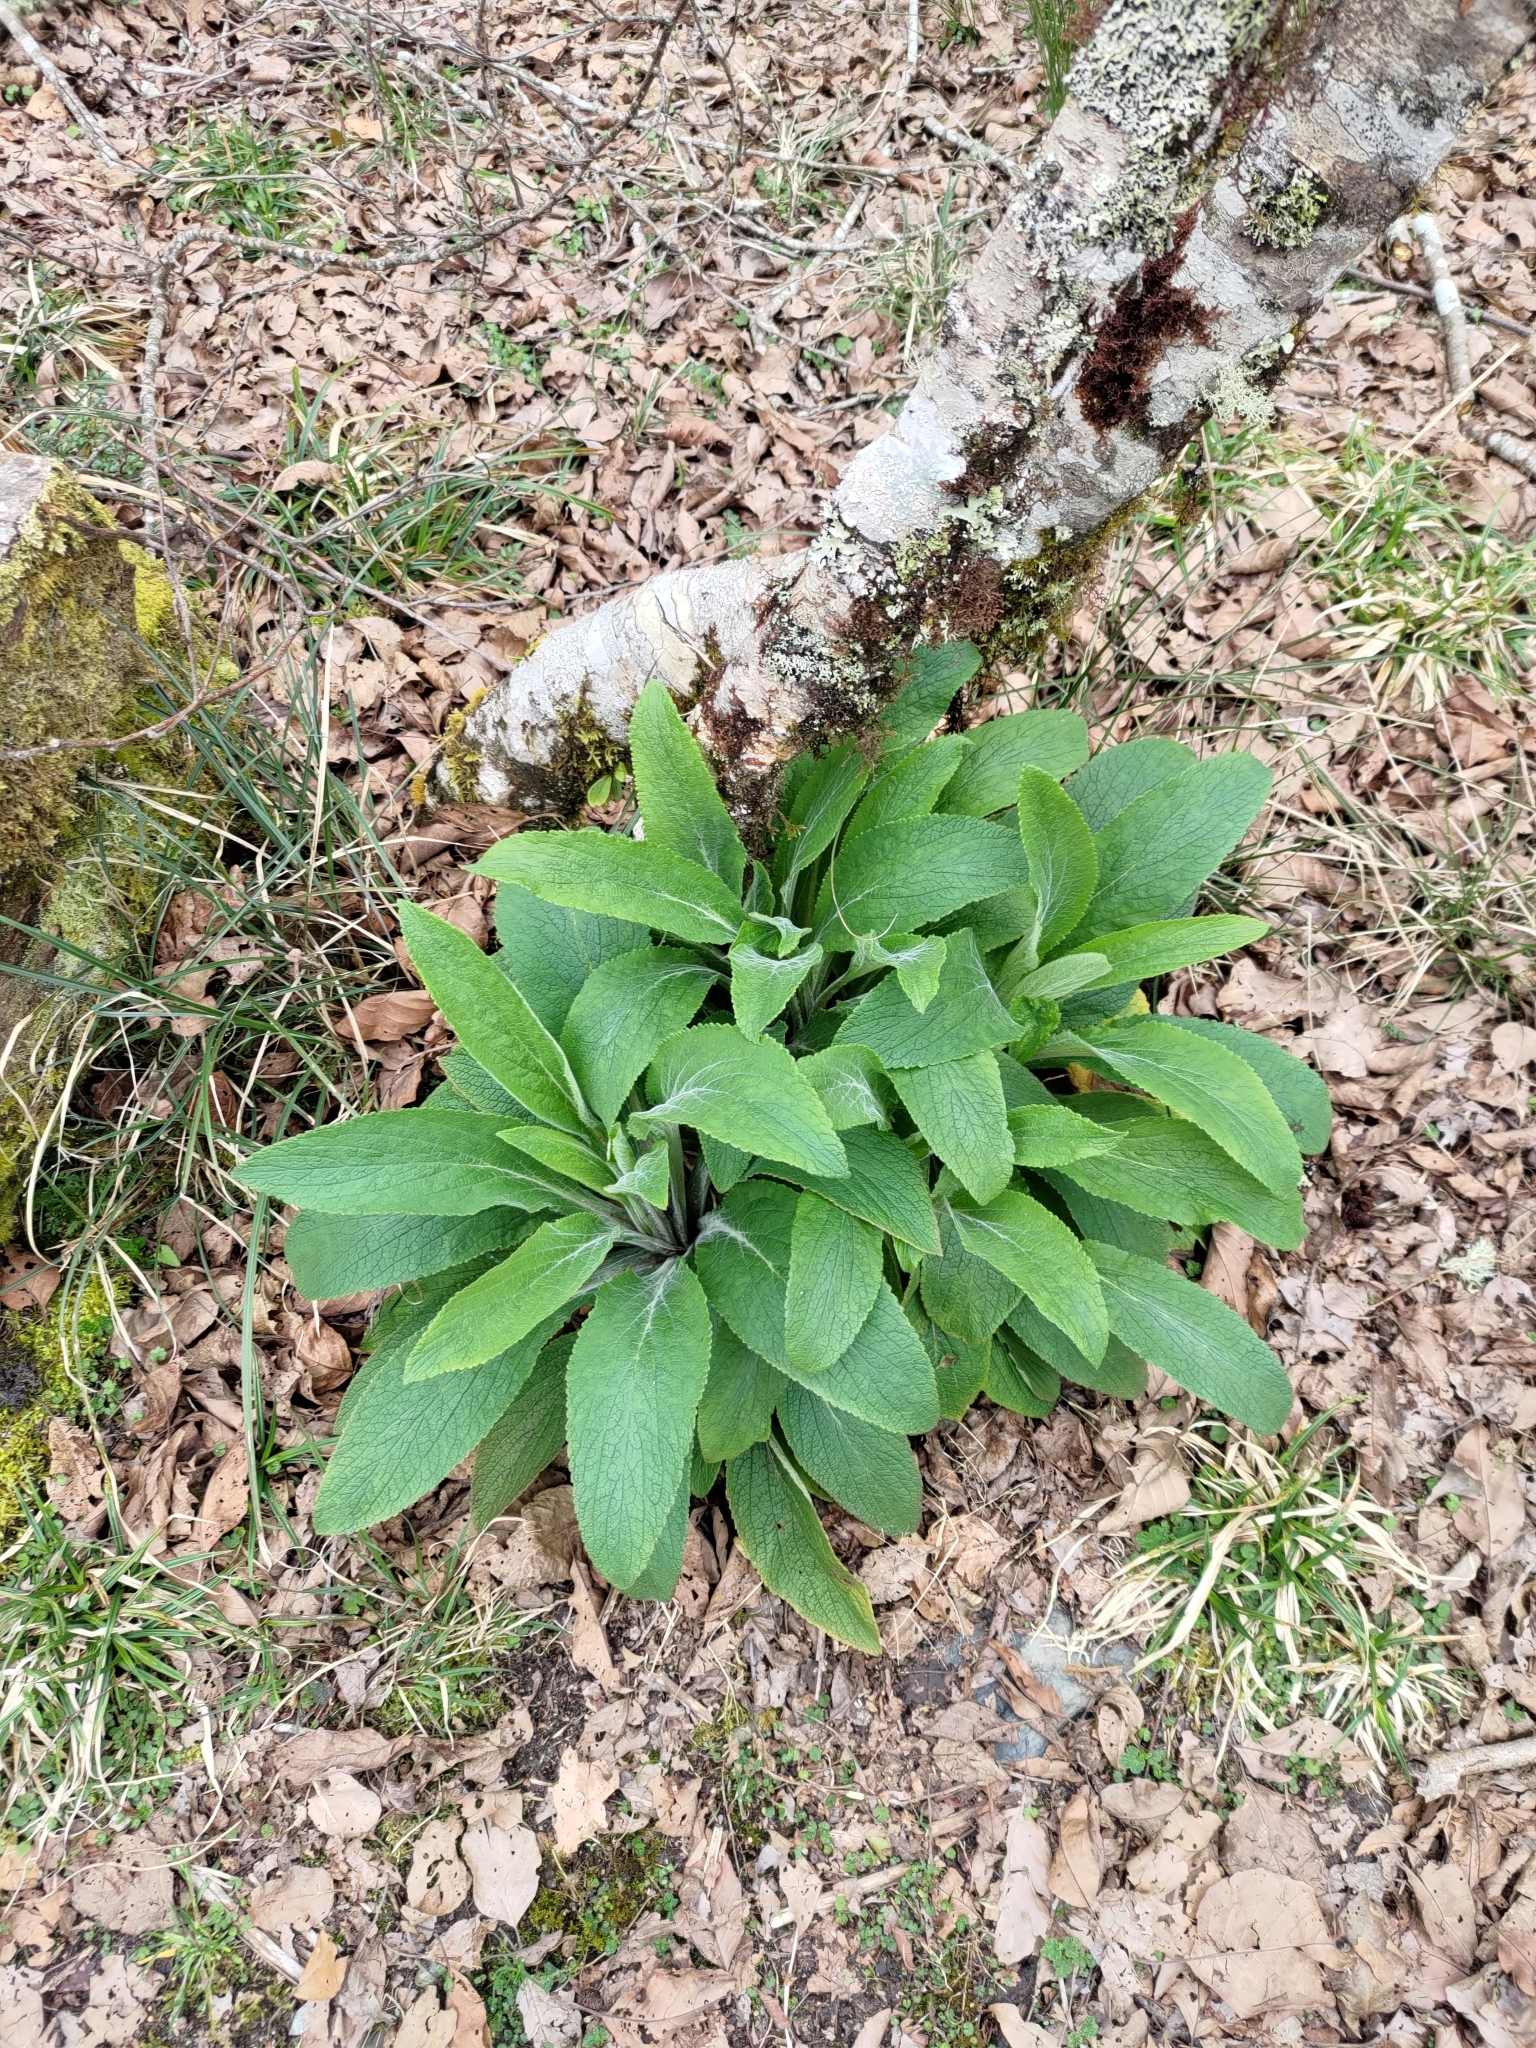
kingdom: Plantae
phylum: Tracheophyta
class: Magnoliopsida
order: Lamiales
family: Plantaginaceae
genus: Digitalis
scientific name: Digitalis purpurea
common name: Foxglove
